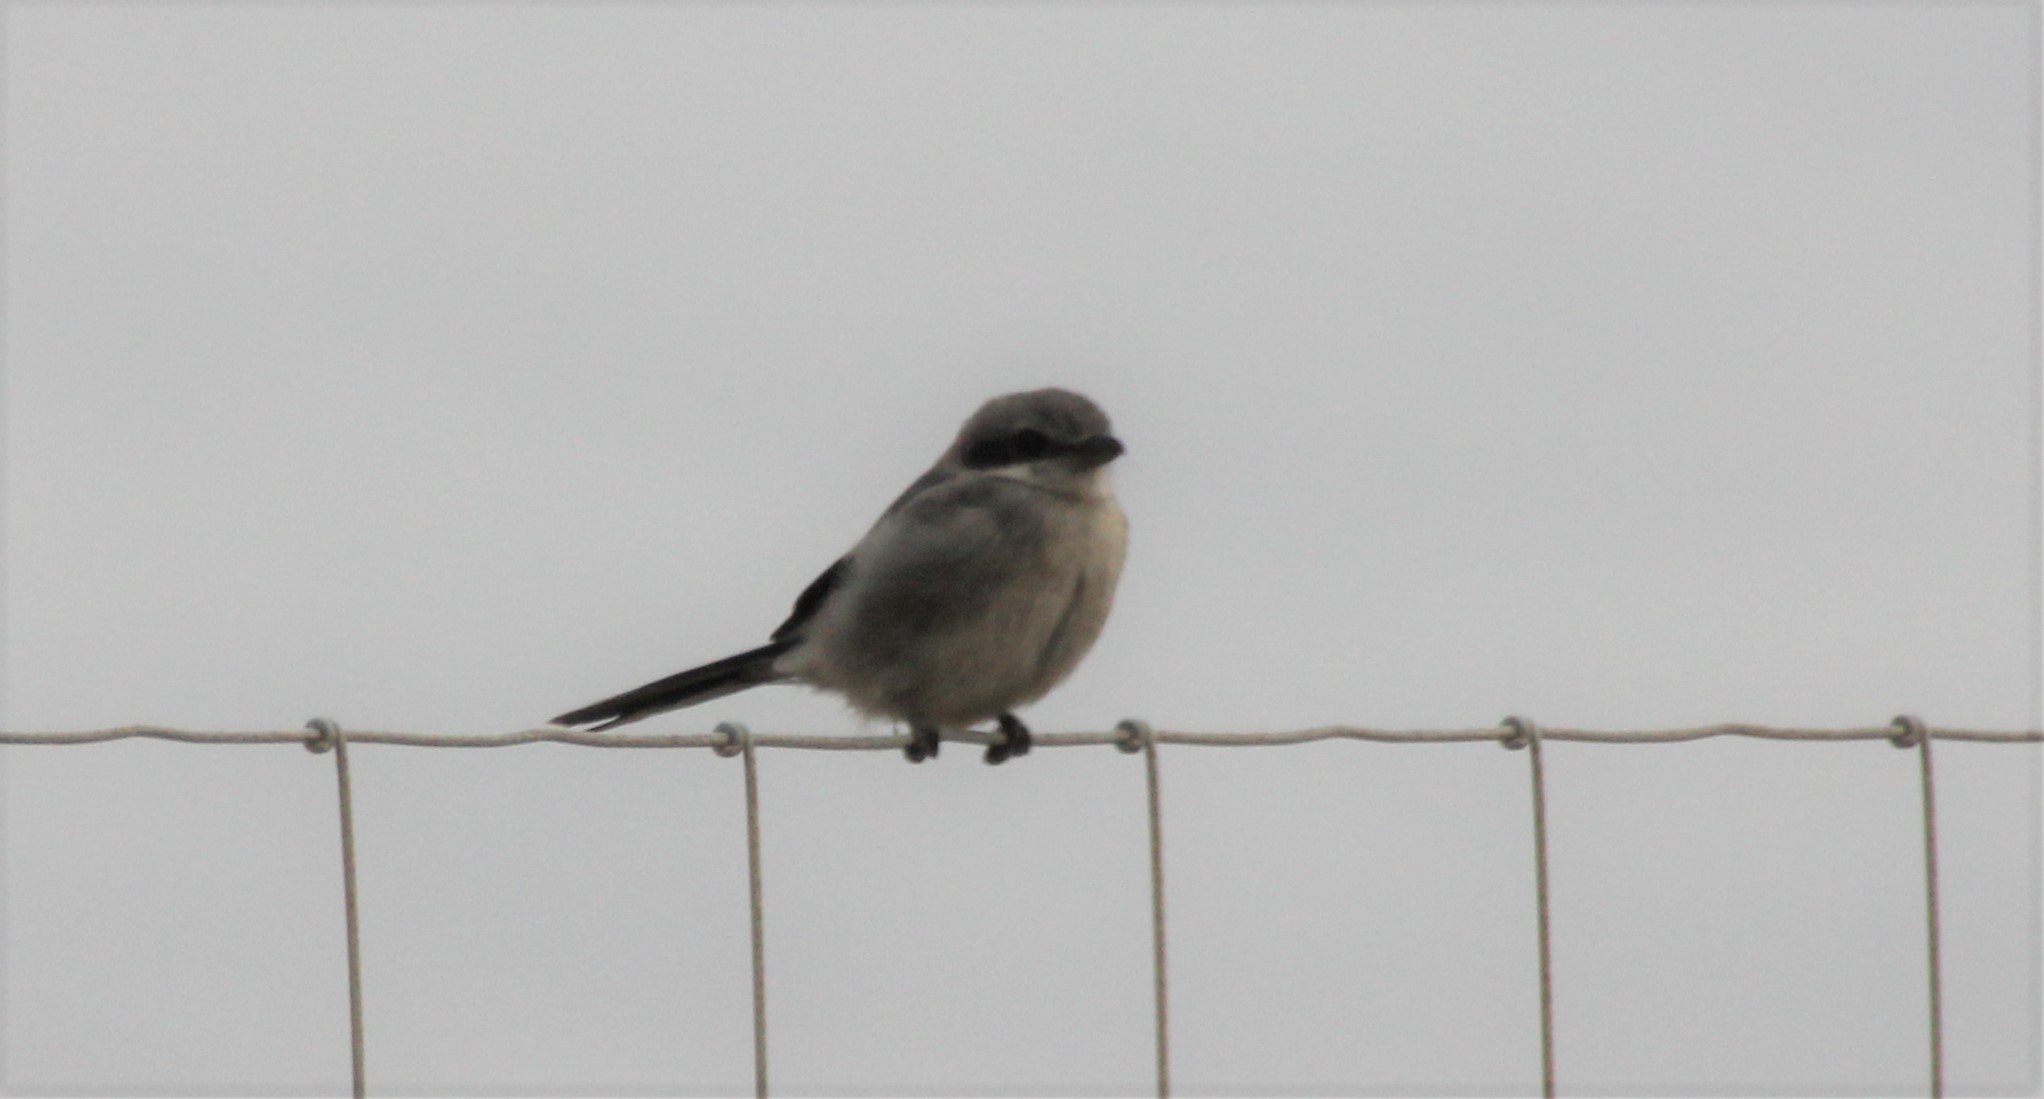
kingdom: Animalia
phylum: Chordata
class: Aves
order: Passeriformes
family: Laniidae
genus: Lanius
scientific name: Lanius meridionalis
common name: Iberian grey shrike
